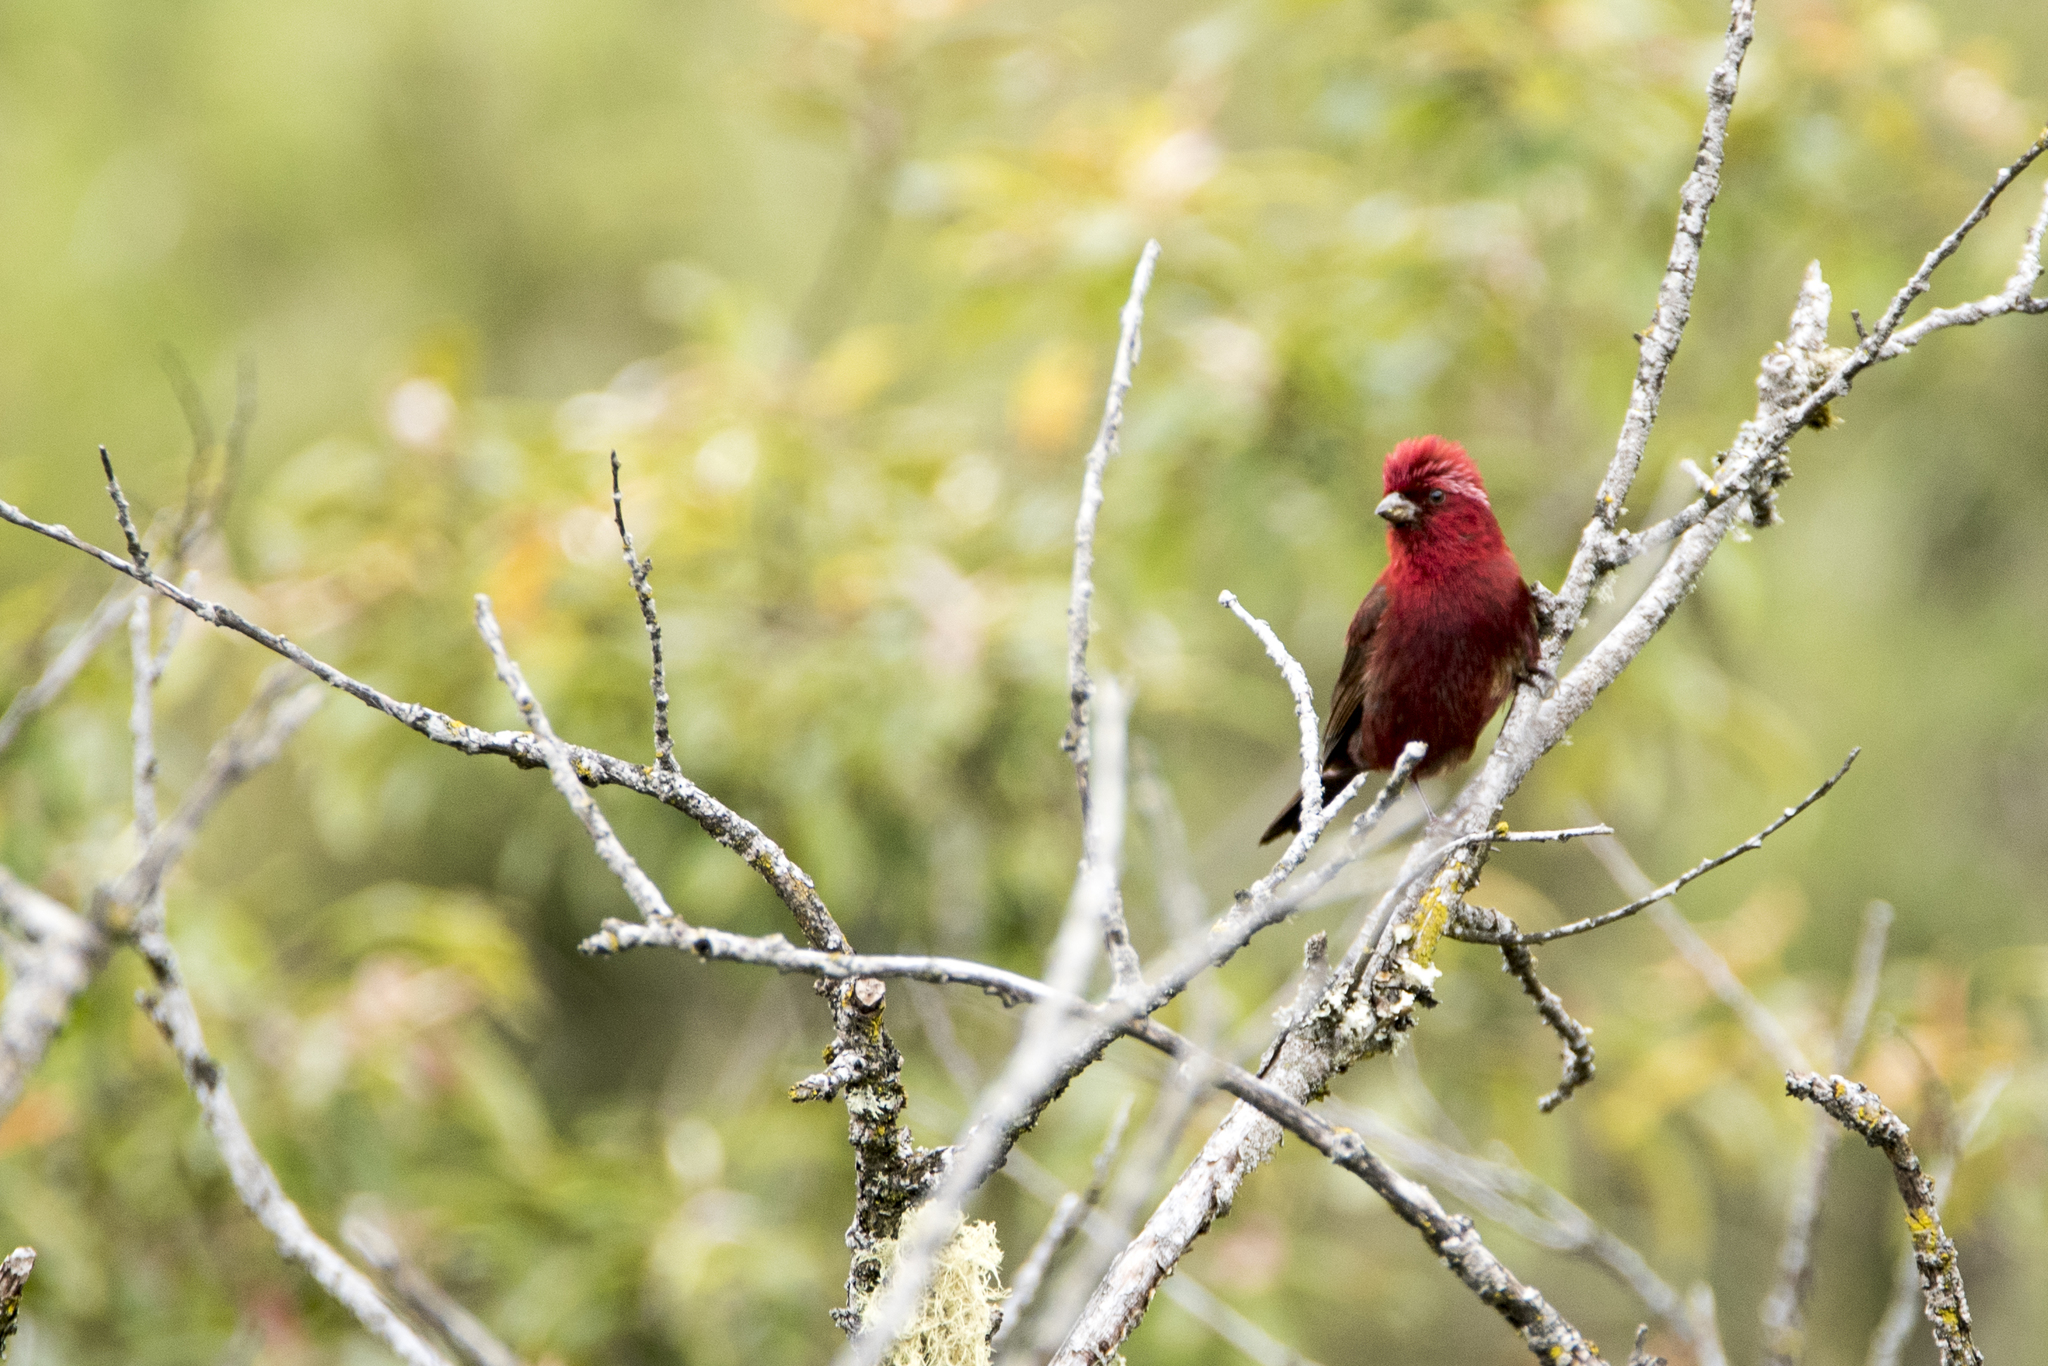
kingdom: Animalia
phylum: Chordata
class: Aves
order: Passeriformes
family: Fringillidae
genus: Carpodacus
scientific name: Carpodacus formosanus
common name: Taiwan rosefinch
